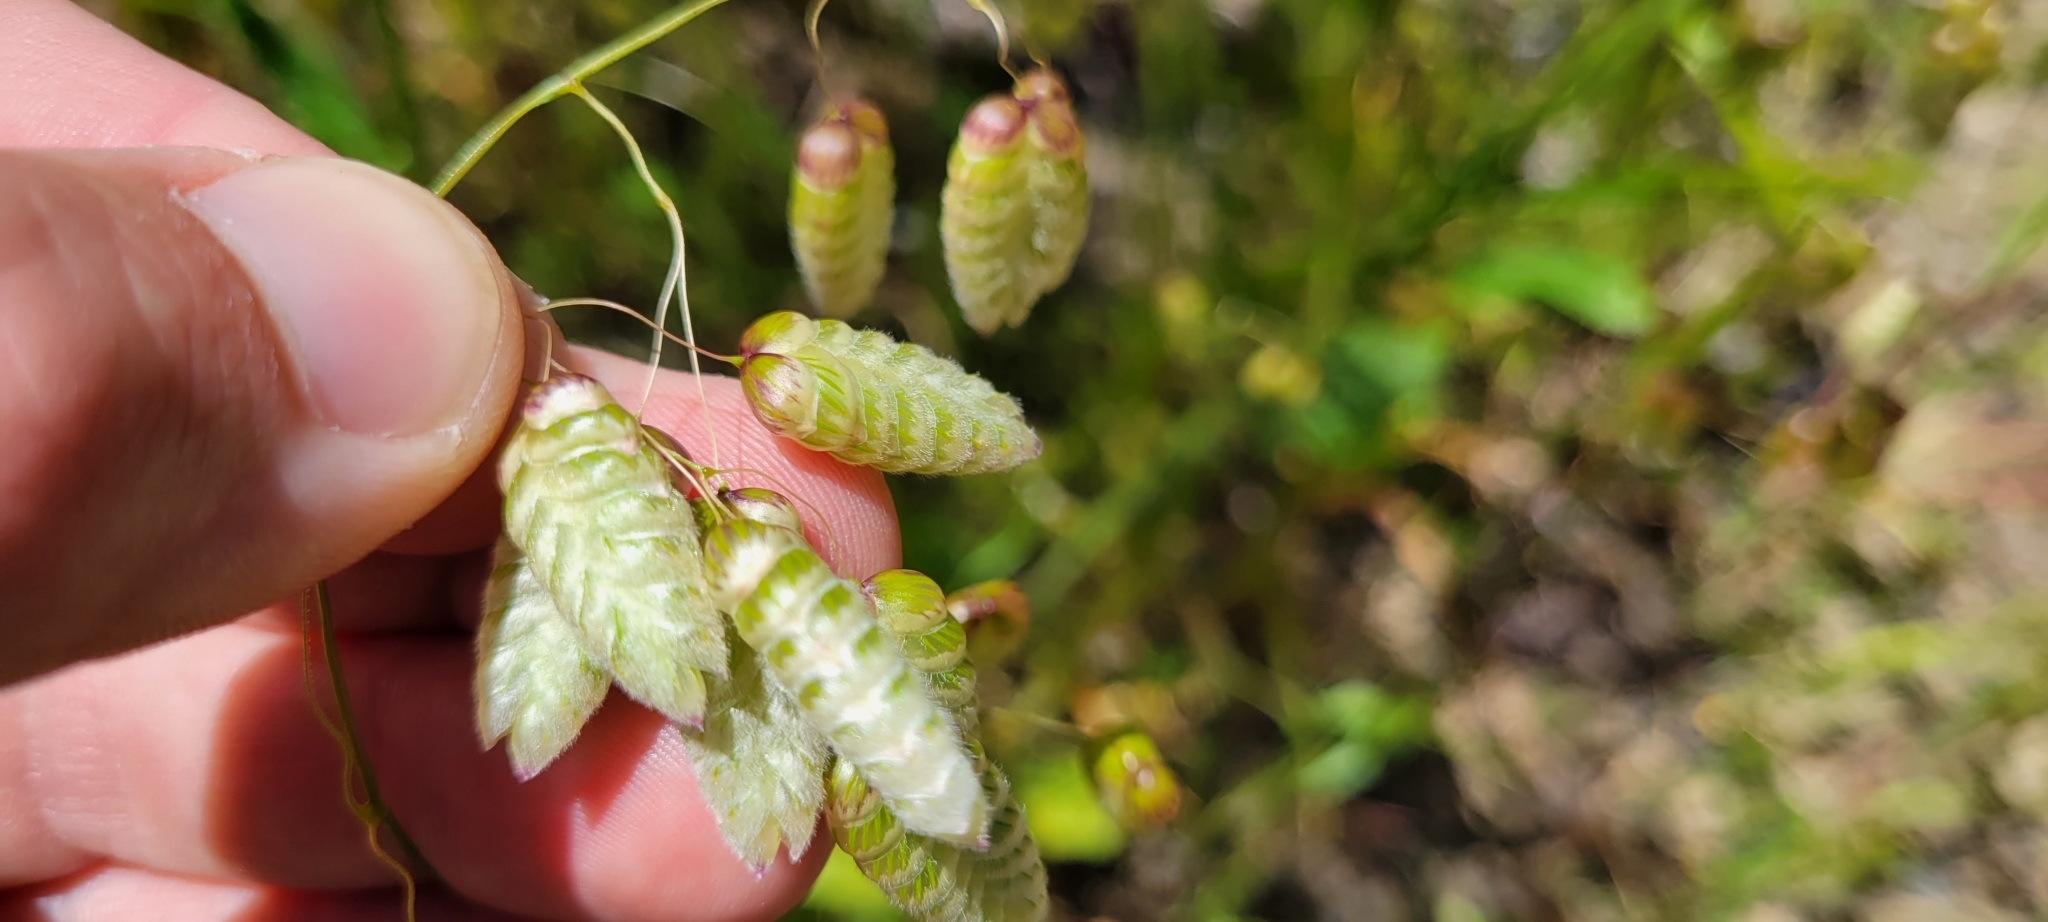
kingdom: Plantae
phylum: Tracheophyta
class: Liliopsida
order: Poales
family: Poaceae
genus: Briza
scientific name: Briza maxima
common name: Big quakinggrass
